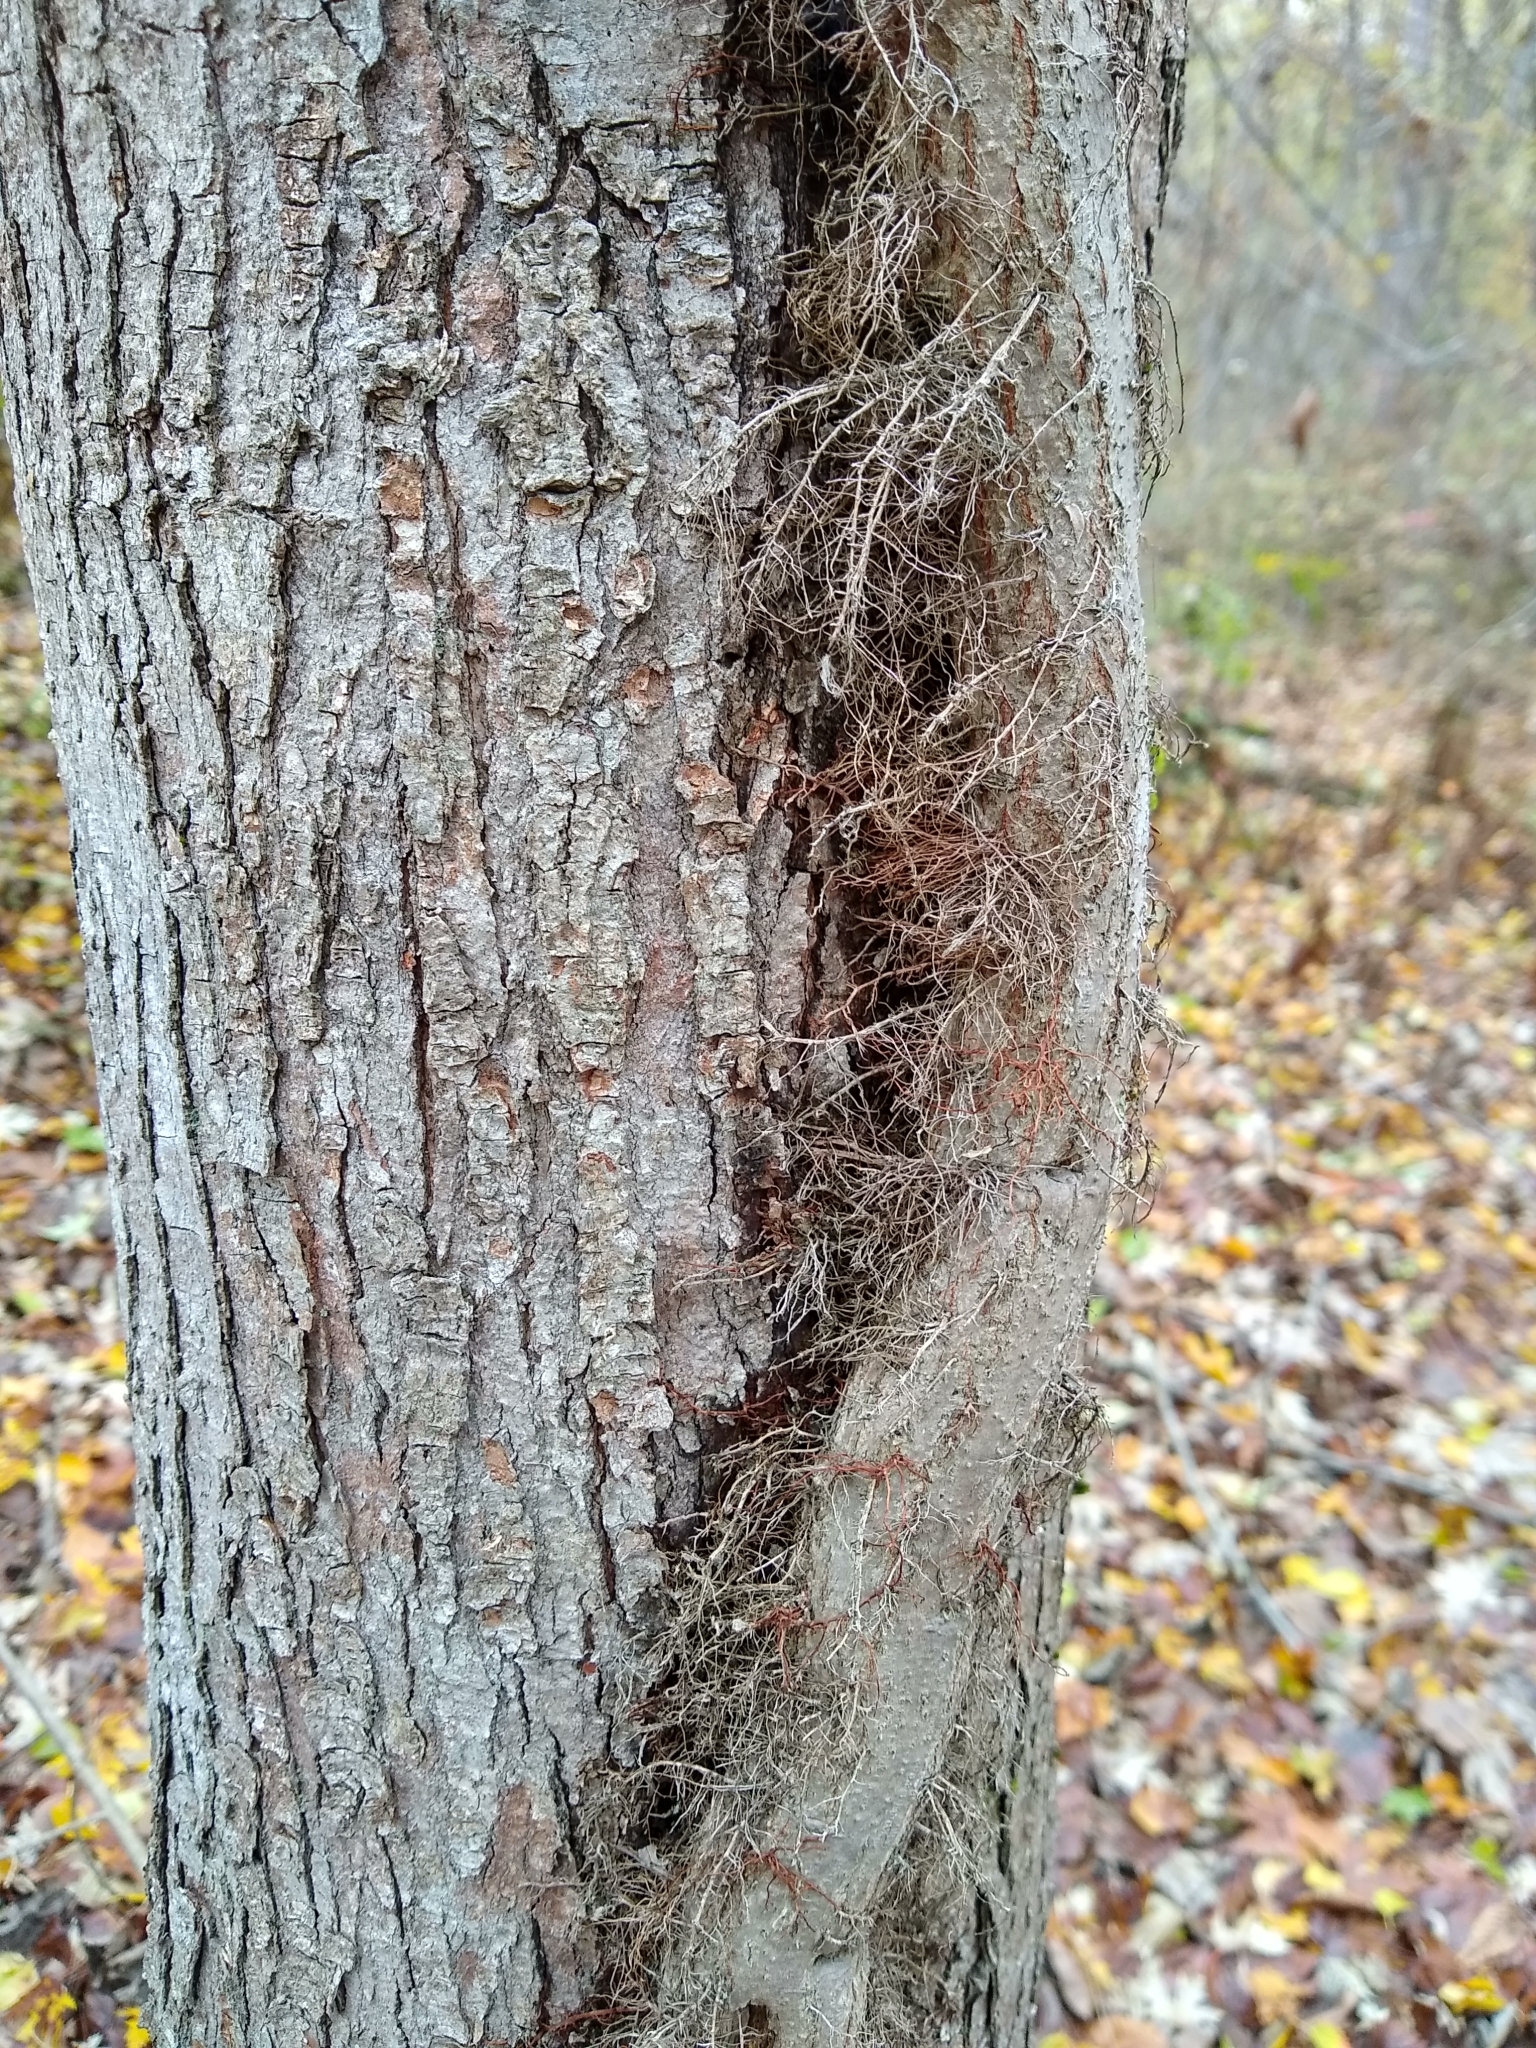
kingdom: Plantae
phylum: Tracheophyta
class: Magnoliopsida
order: Sapindales
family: Anacardiaceae
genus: Toxicodendron
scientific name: Toxicodendron radicans
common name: Poison ivy
